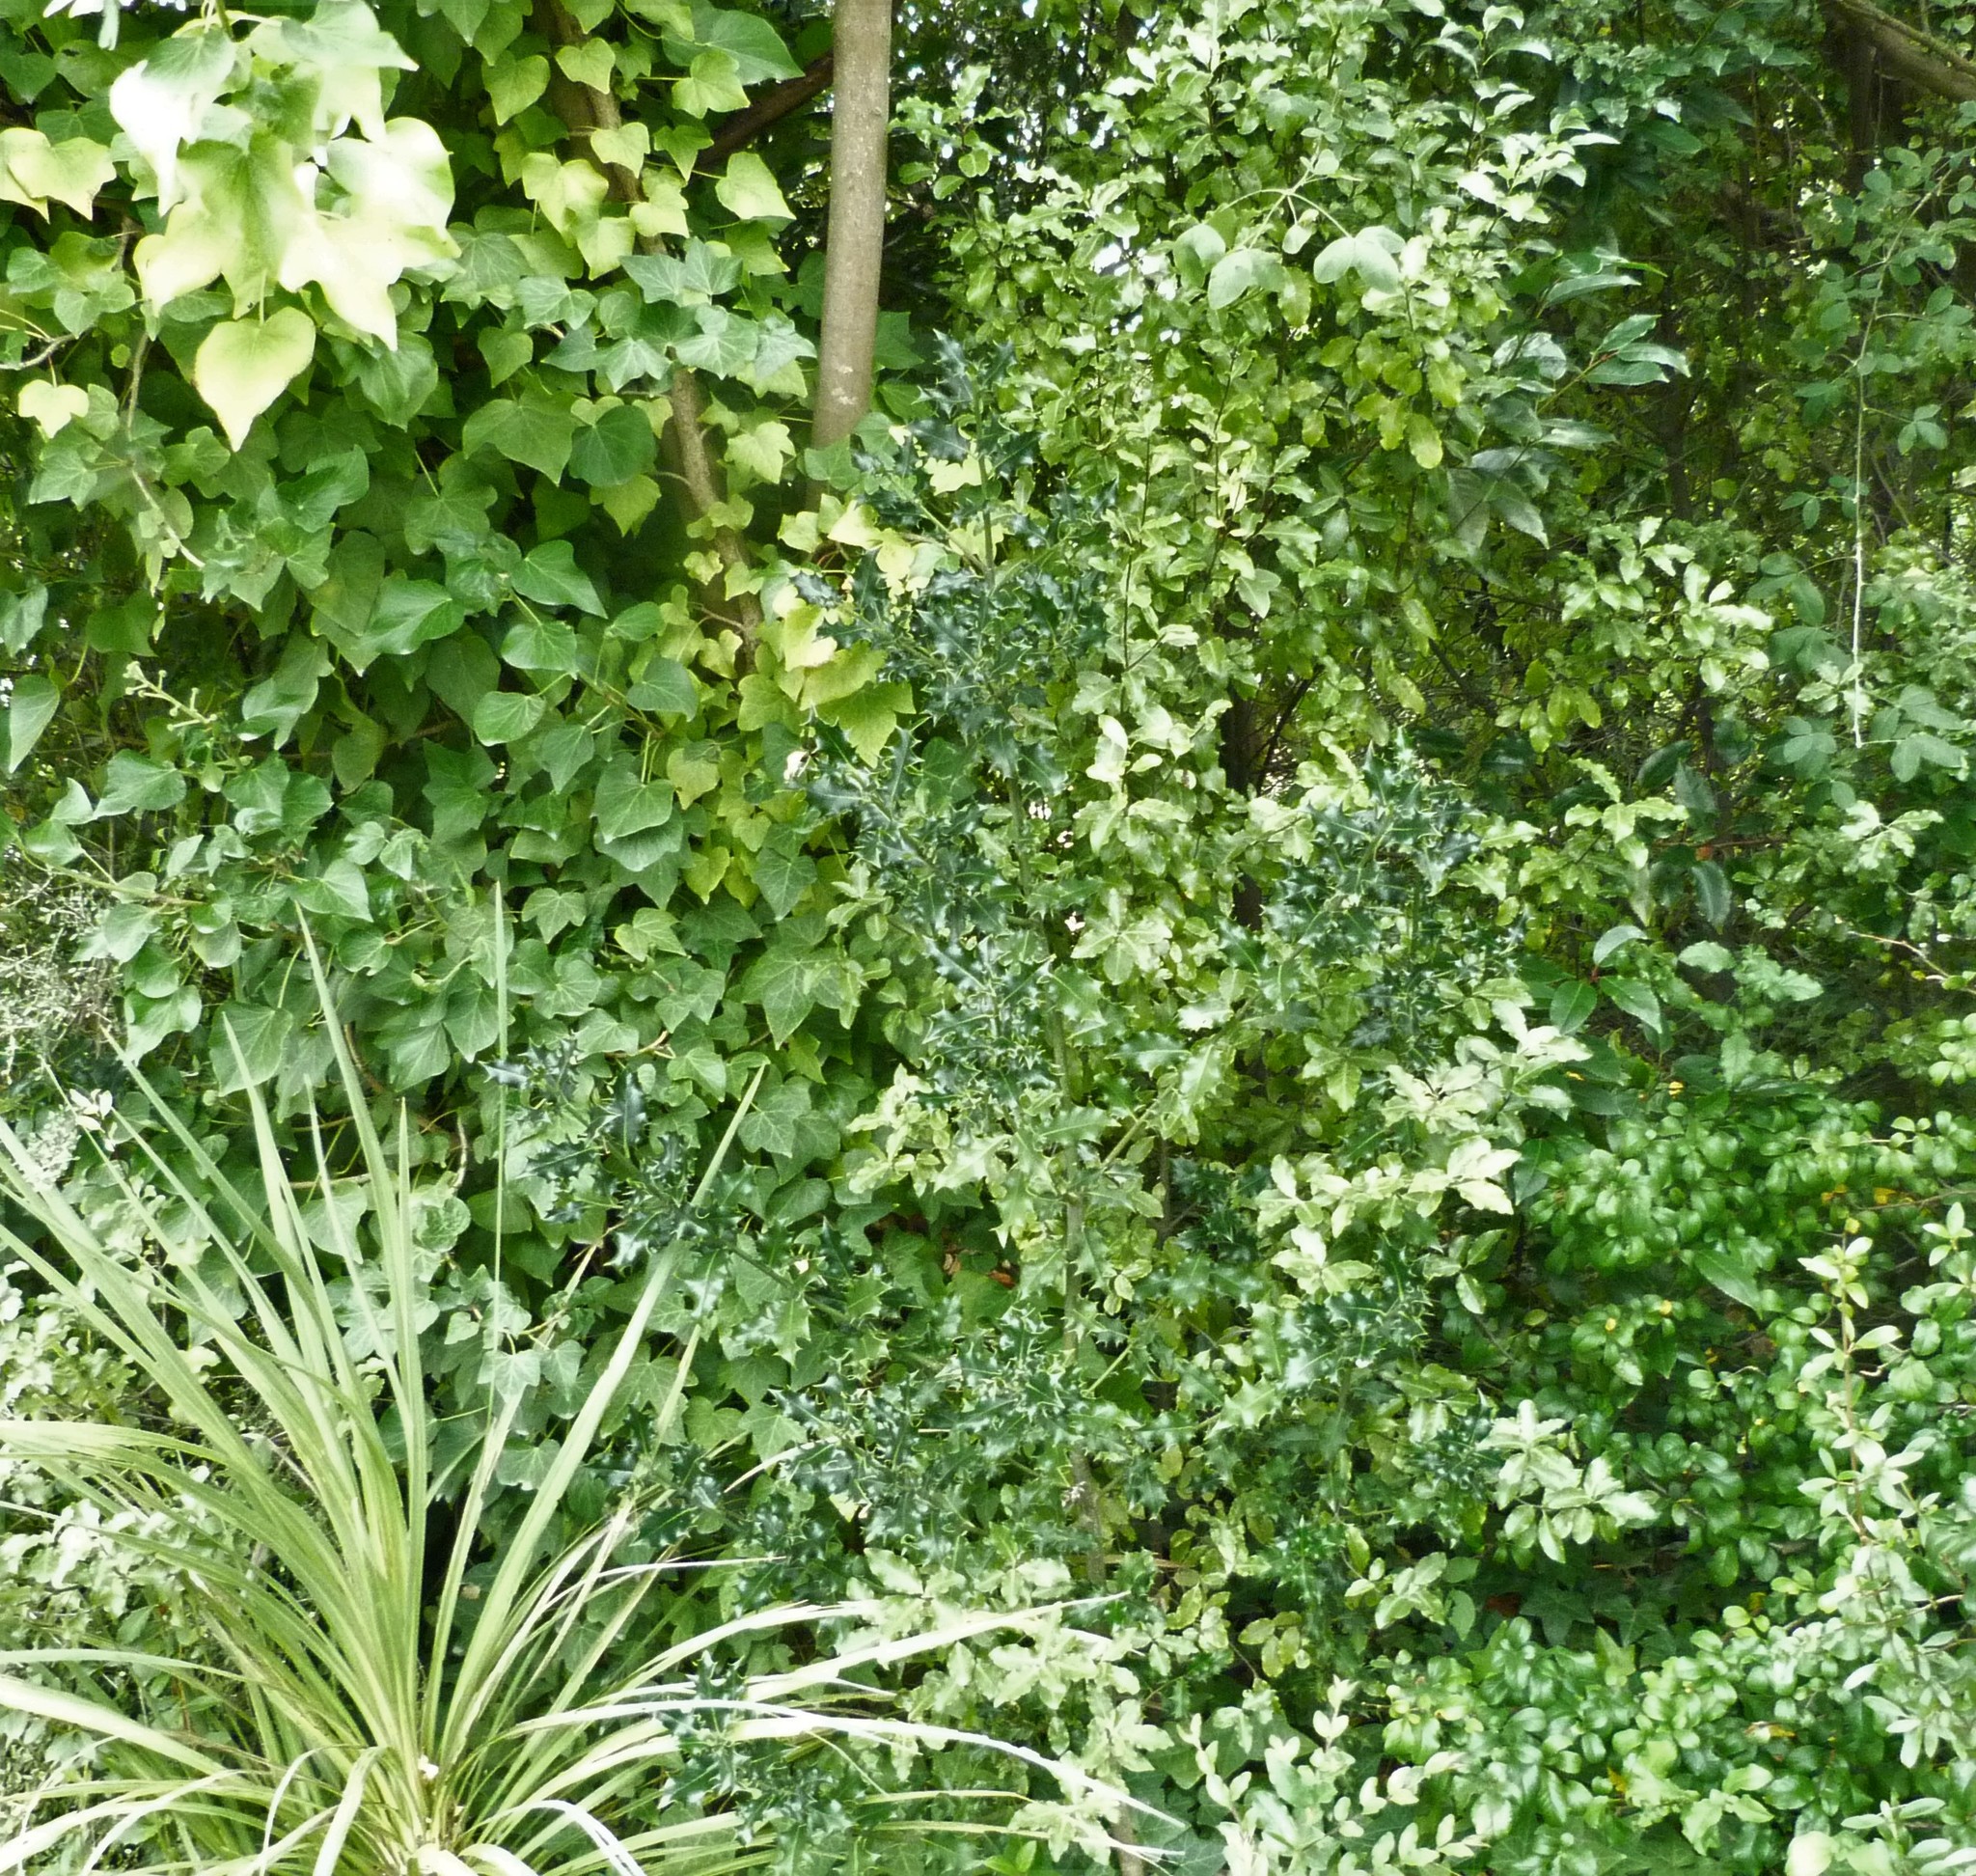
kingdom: Plantae
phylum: Tracheophyta
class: Magnoliopsida
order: Aquifoliales
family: Aquifoliaceae
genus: Ilex
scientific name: Ilex aquifolium
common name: English holly
